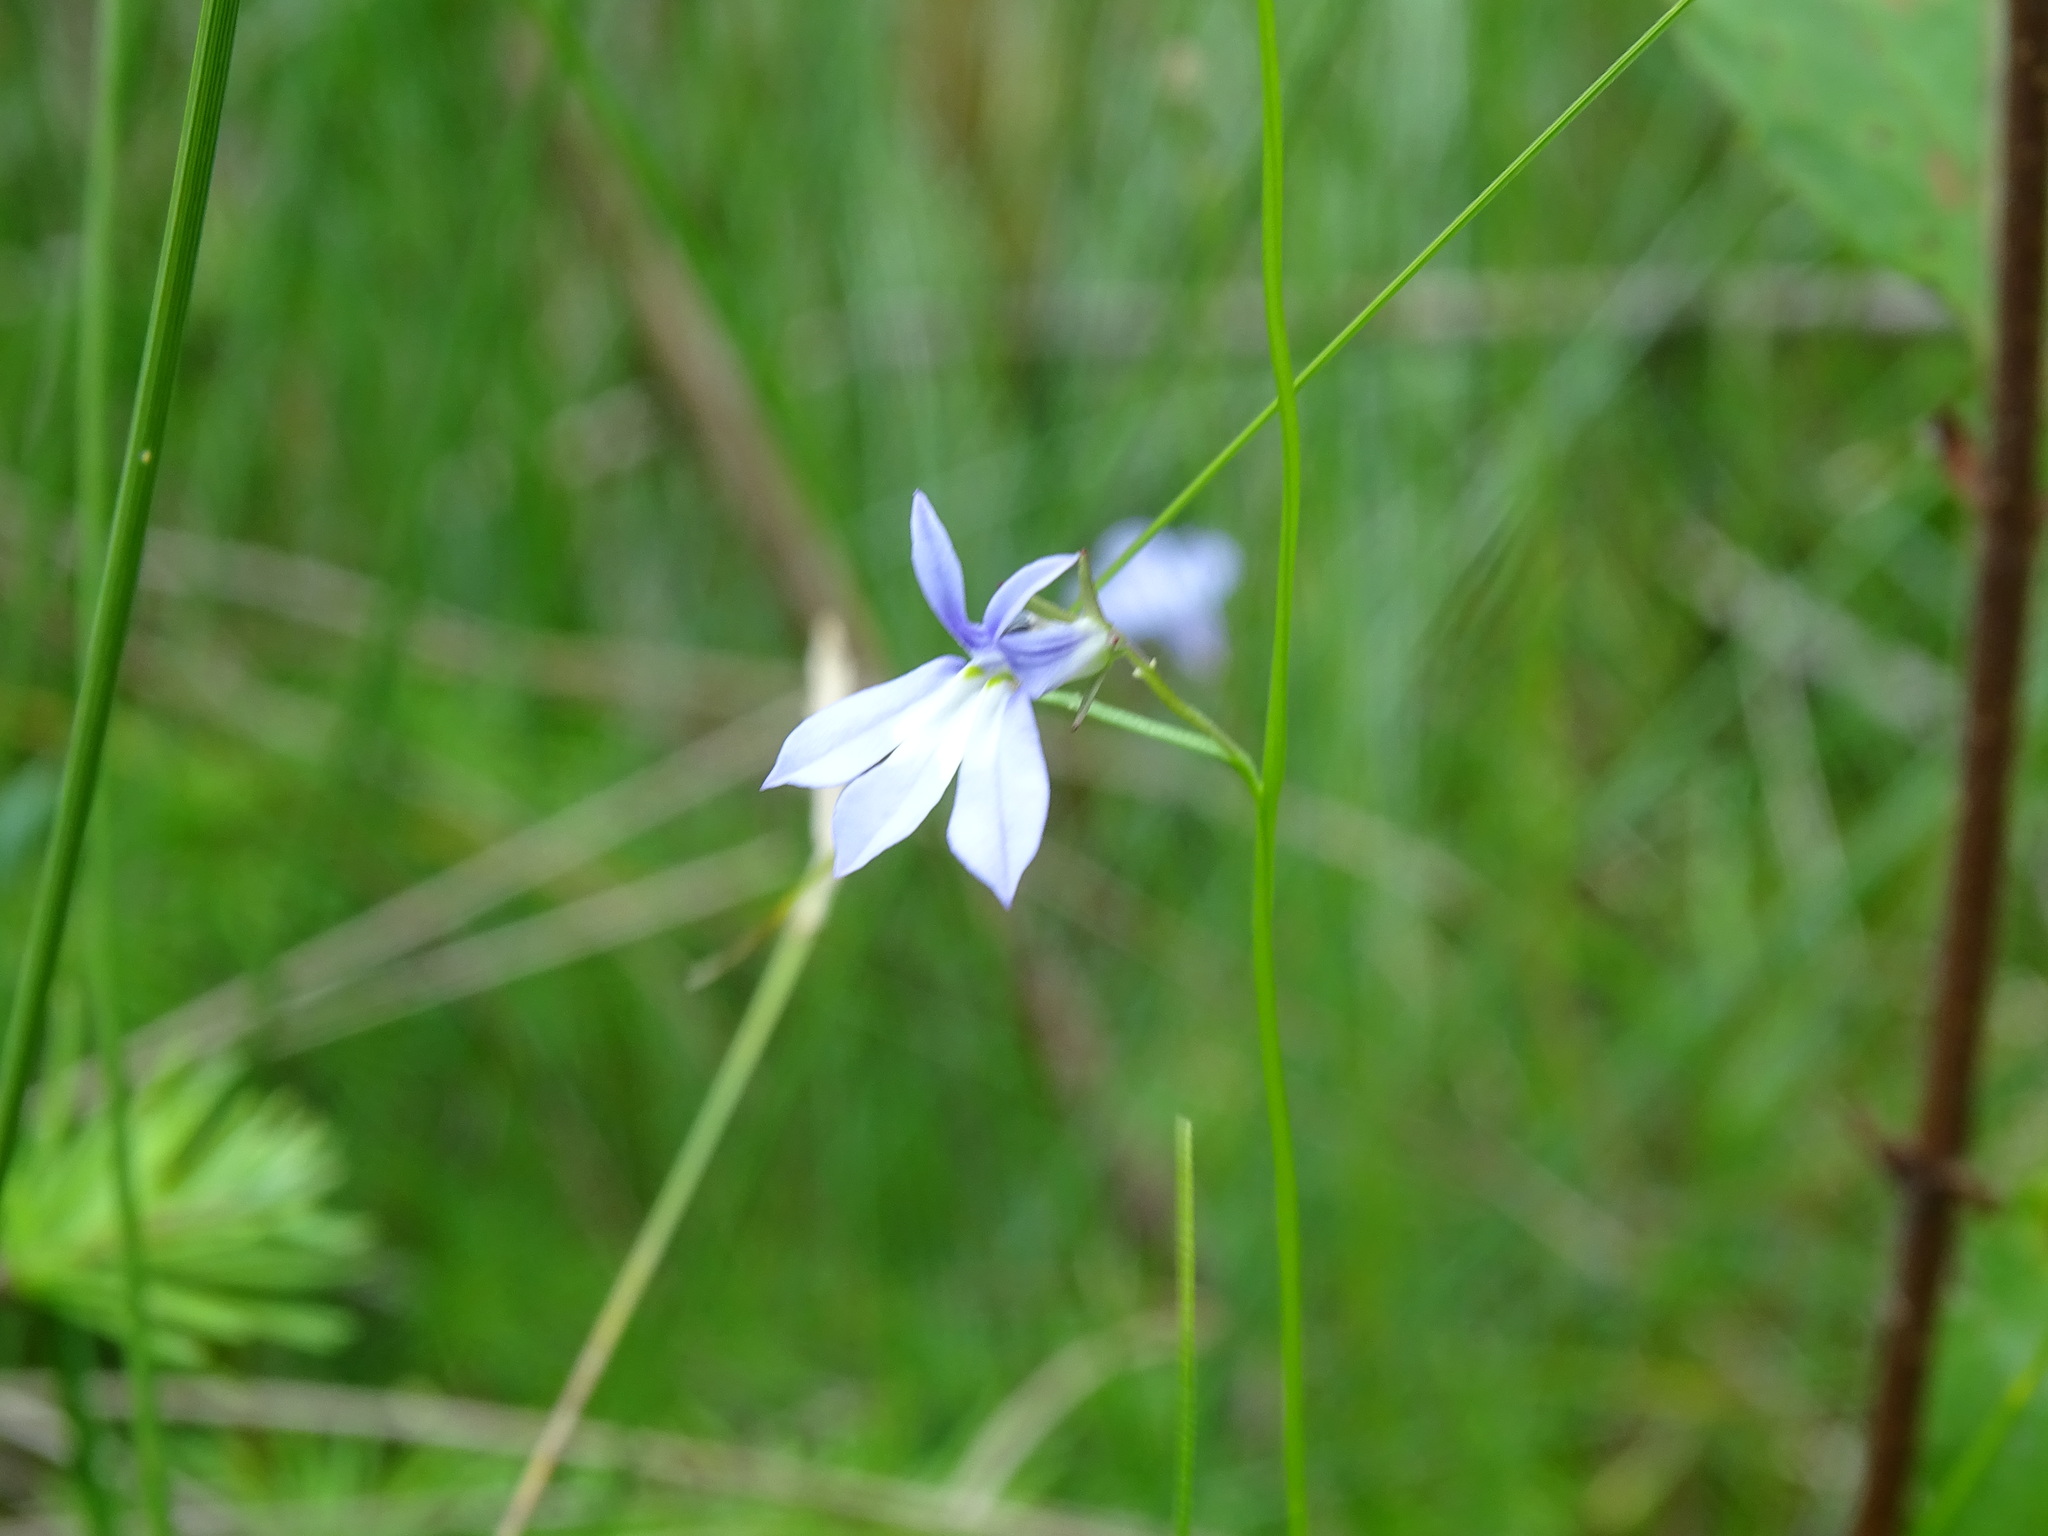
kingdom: Plantae
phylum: Tracheophyta
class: Magnoliopsida
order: Asterales
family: Campanulaceae
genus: Lobelia
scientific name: Lobelia kalmii
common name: Kalm's lobelia
